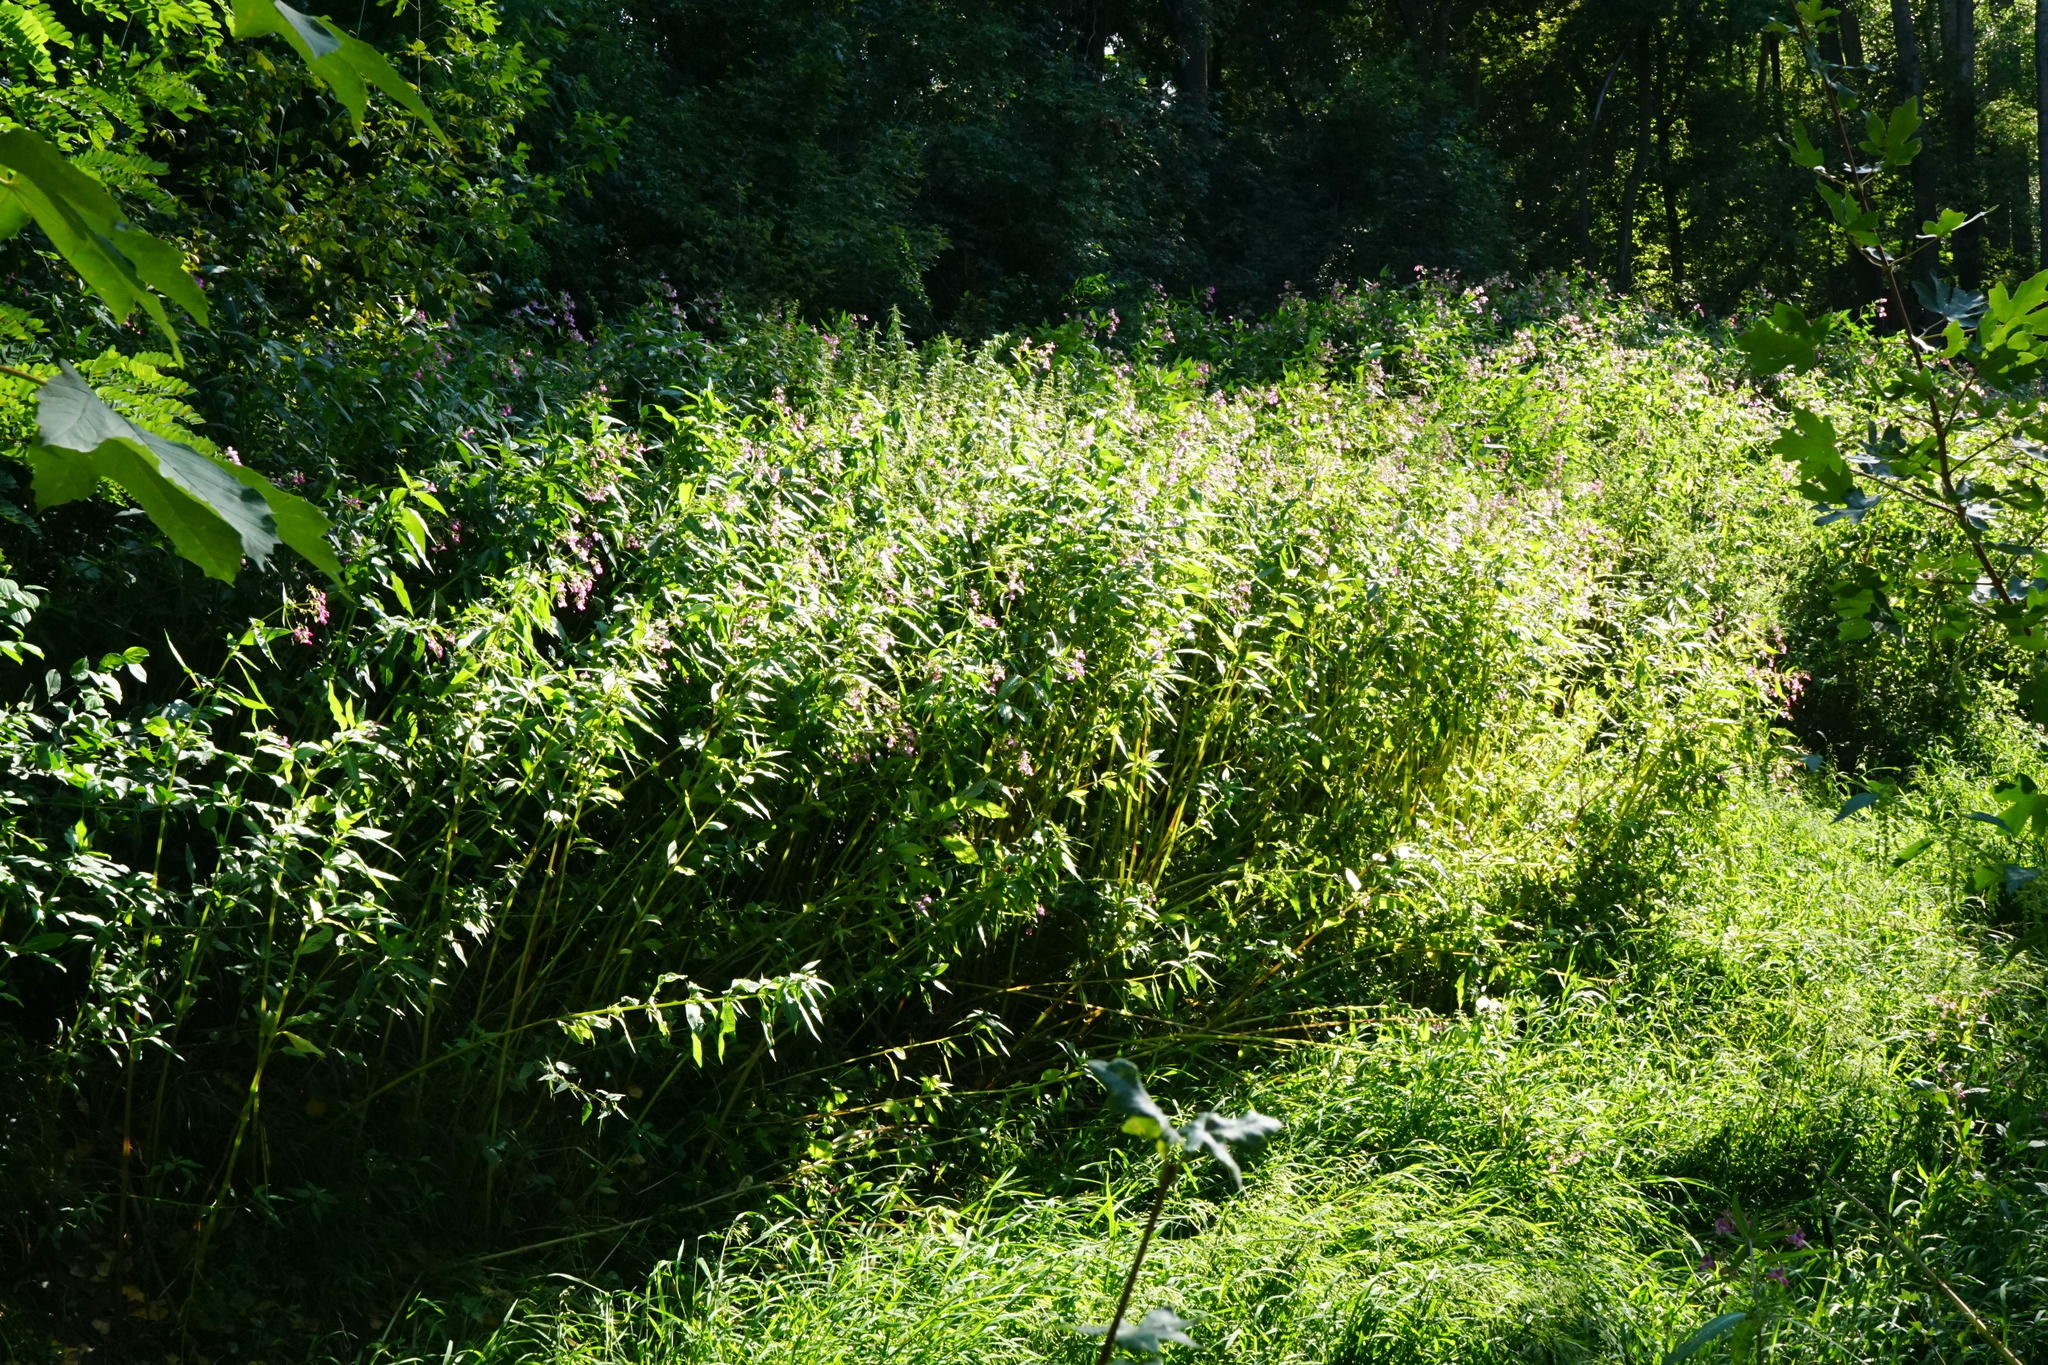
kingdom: Plantae
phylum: Tracheophyta
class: Magnoliopsida
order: Ericales
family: Balsaminaceae
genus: Impatiens
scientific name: Impatiens glandulifera
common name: Himalayan balsam
